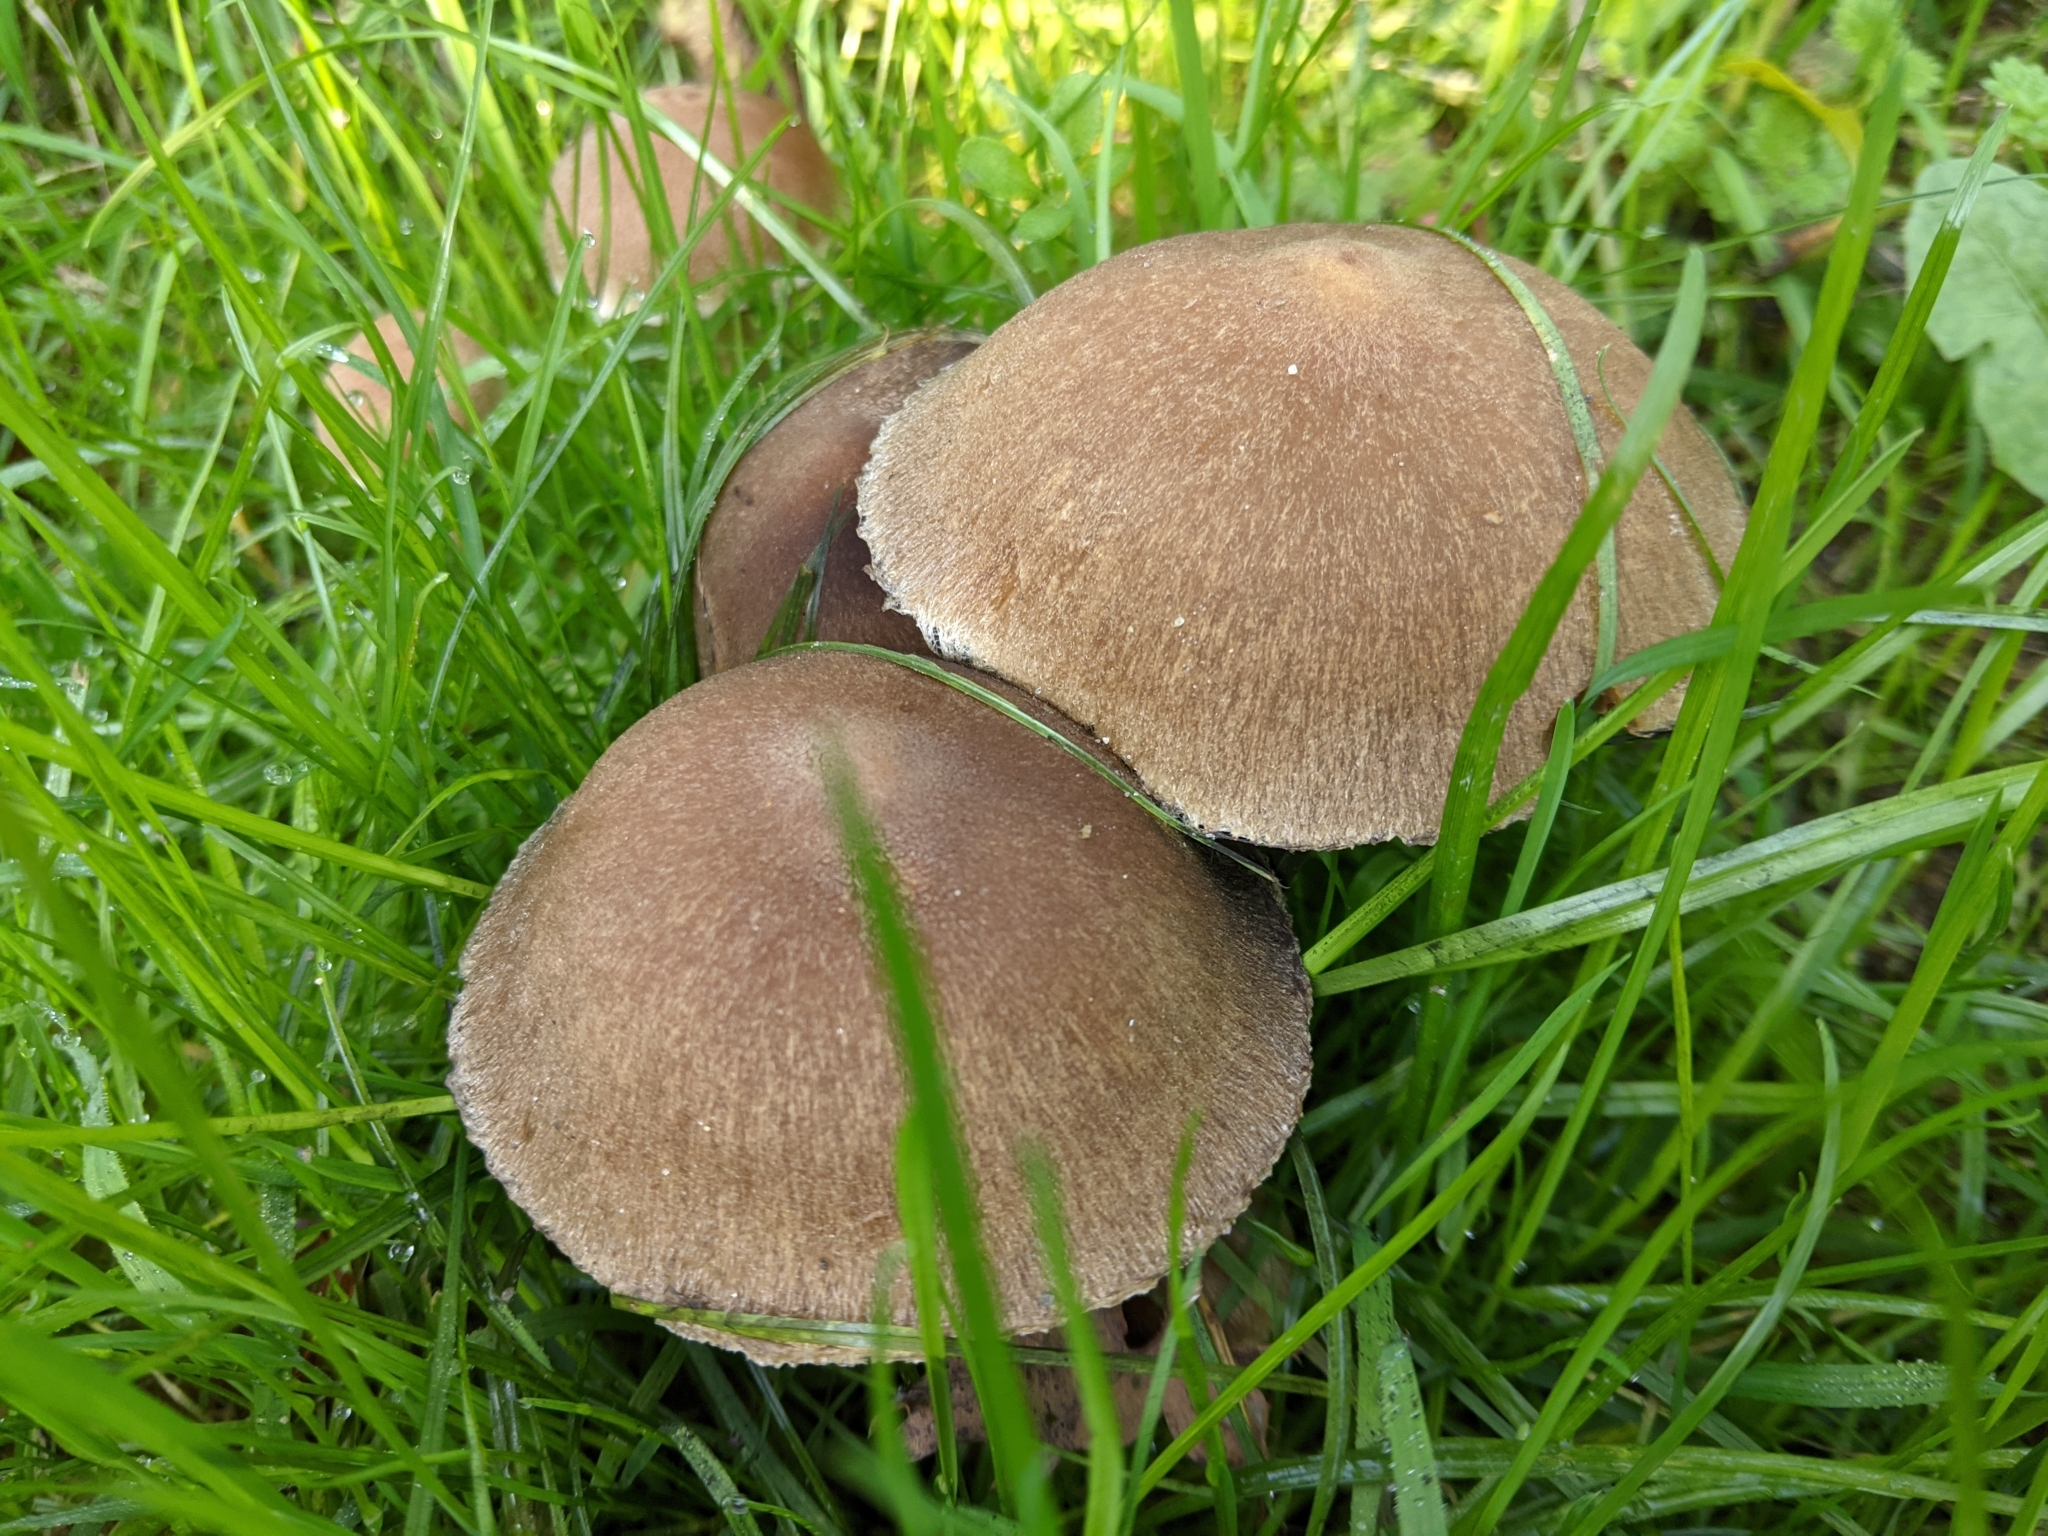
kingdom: Fungi
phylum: Basidiomycota
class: Agaricomycetes
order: Agaricales
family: Psathyrellaceae
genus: Lacrymaria
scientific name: Lacrymaria lacrymabunda
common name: Weeping widow
